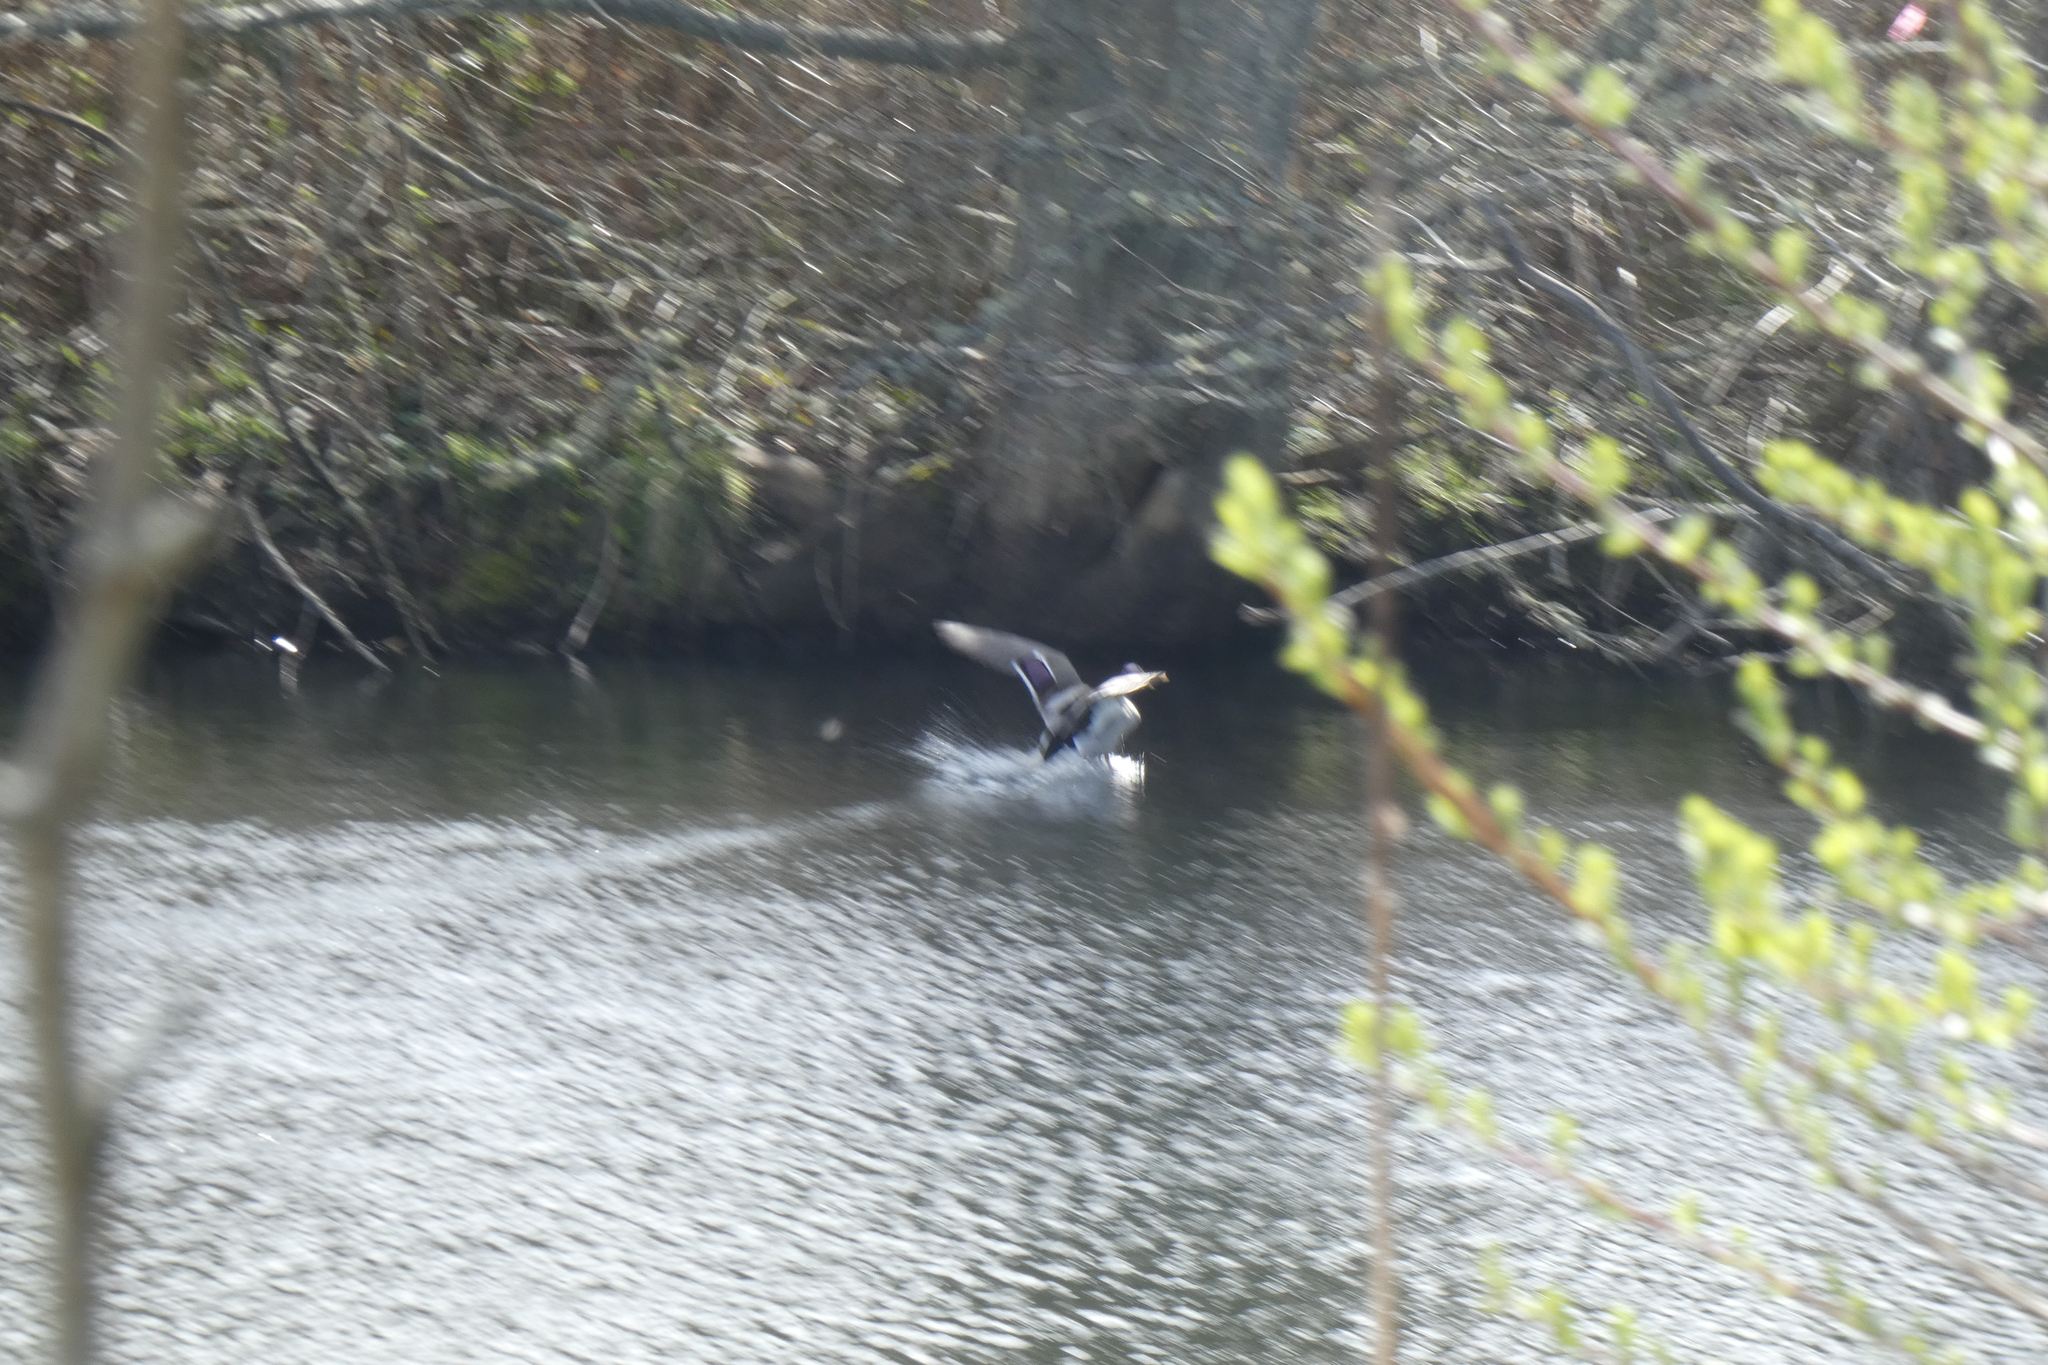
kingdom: Animalia
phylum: Chordata
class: Aves
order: Anseriformes
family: Anatidae
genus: Anas
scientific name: Anas platyrhynchos
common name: Mallard
